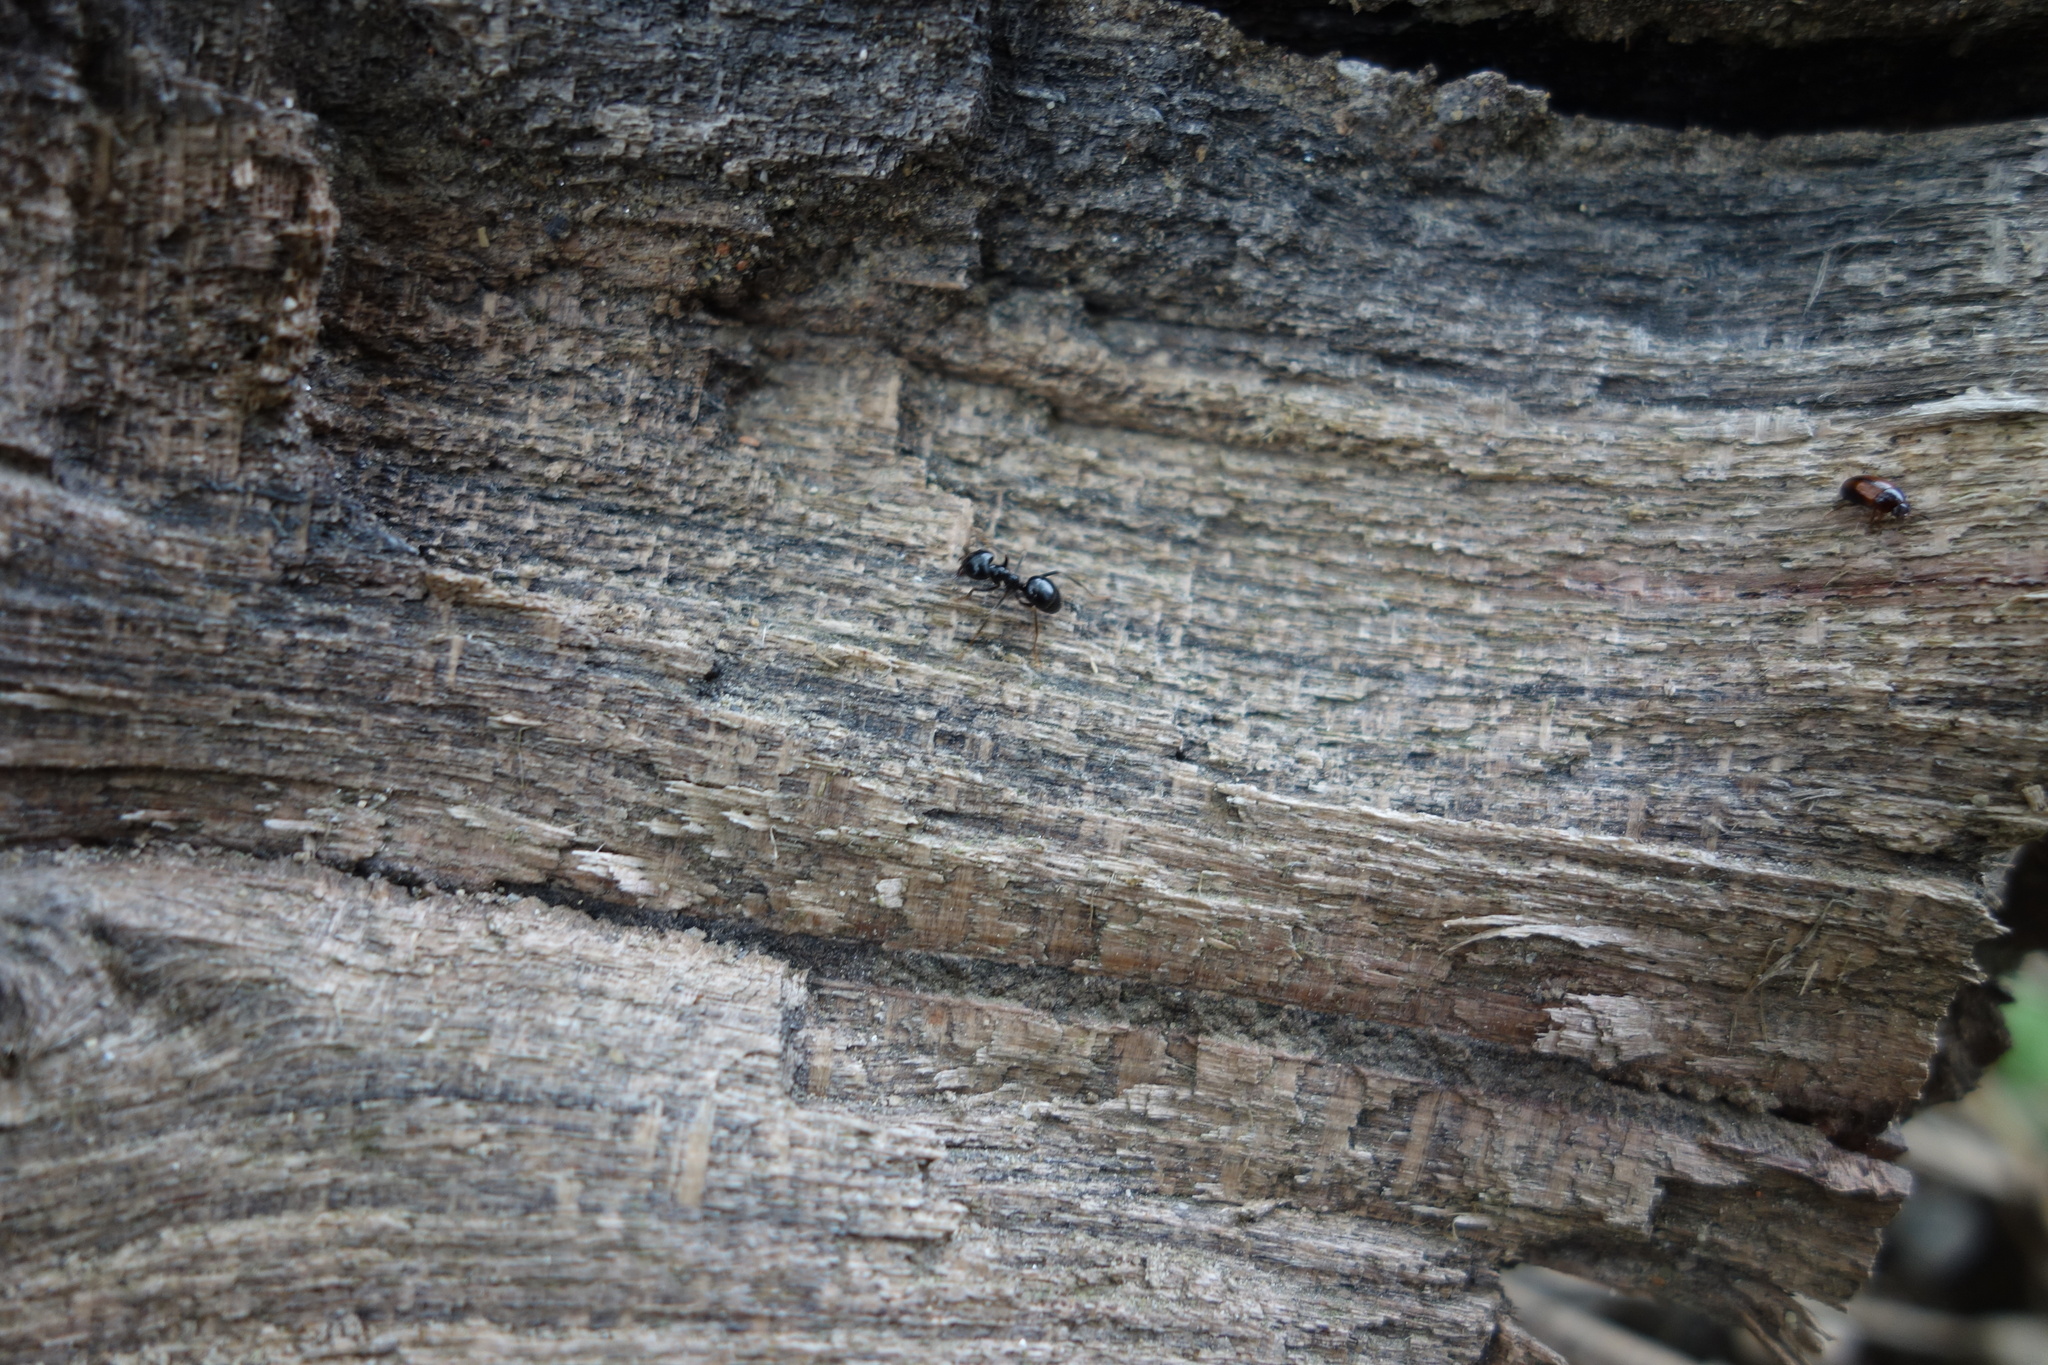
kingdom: Animalia
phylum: Arthropoda
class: Insecta
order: Hymenoptera
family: Formicidae
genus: Lasius
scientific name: Lasius fuliginosus
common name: Jet ant
